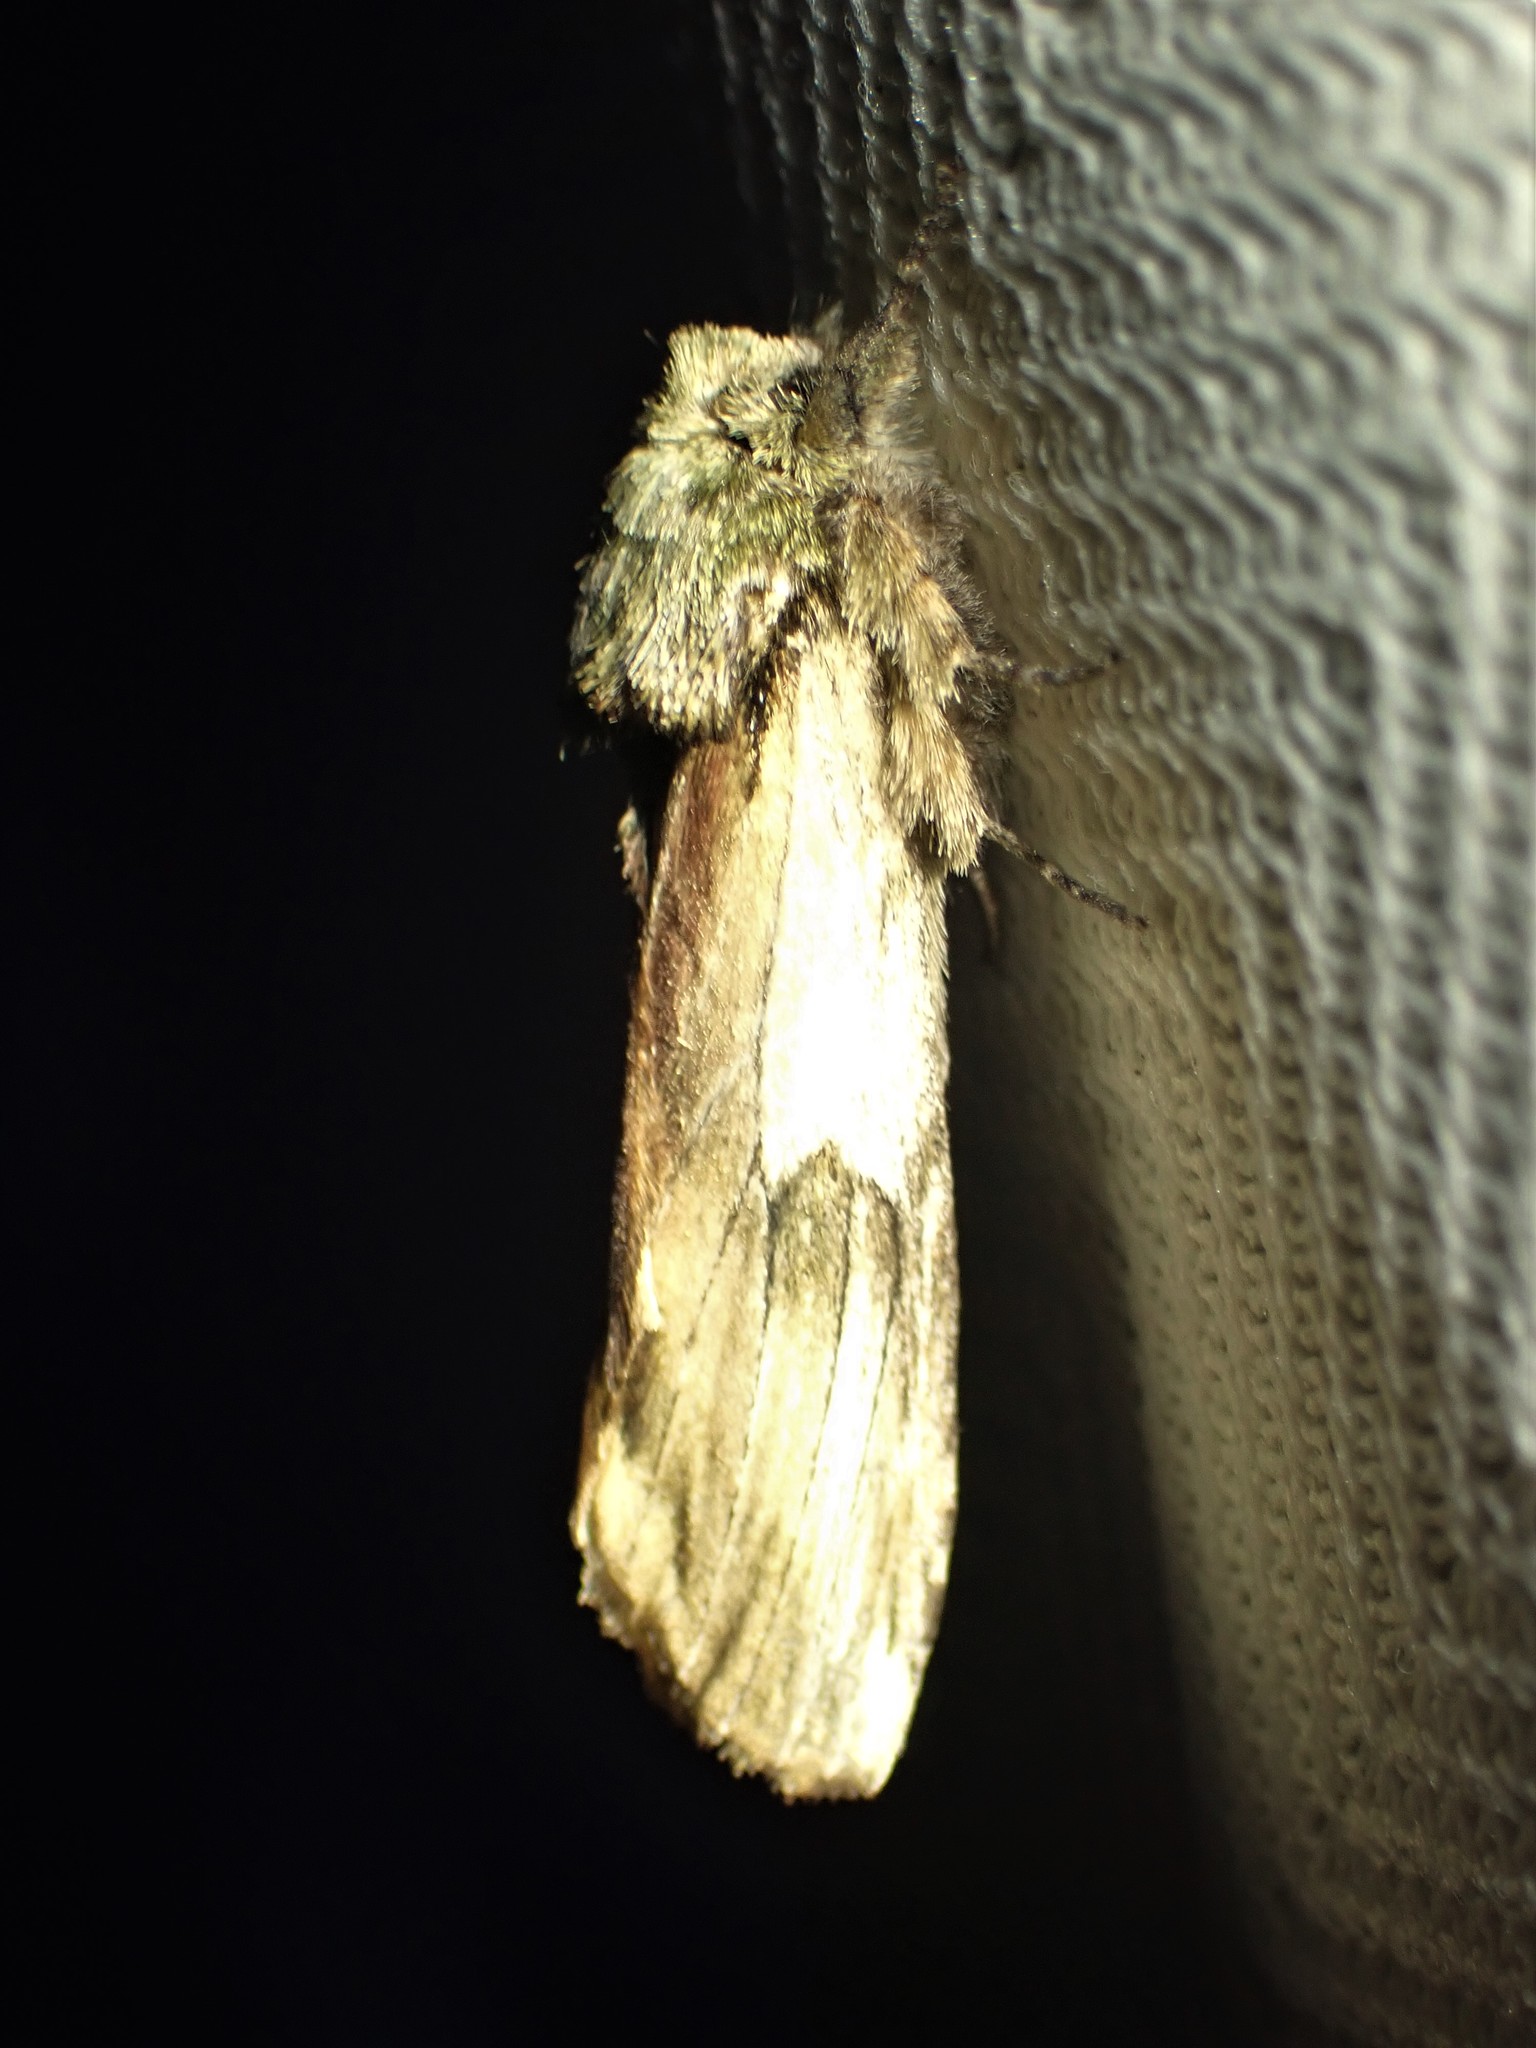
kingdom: Animalia
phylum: Arthropoda
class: Insecta
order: Lepidoptera
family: Notodontidae
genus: Schizura
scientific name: Schizura
